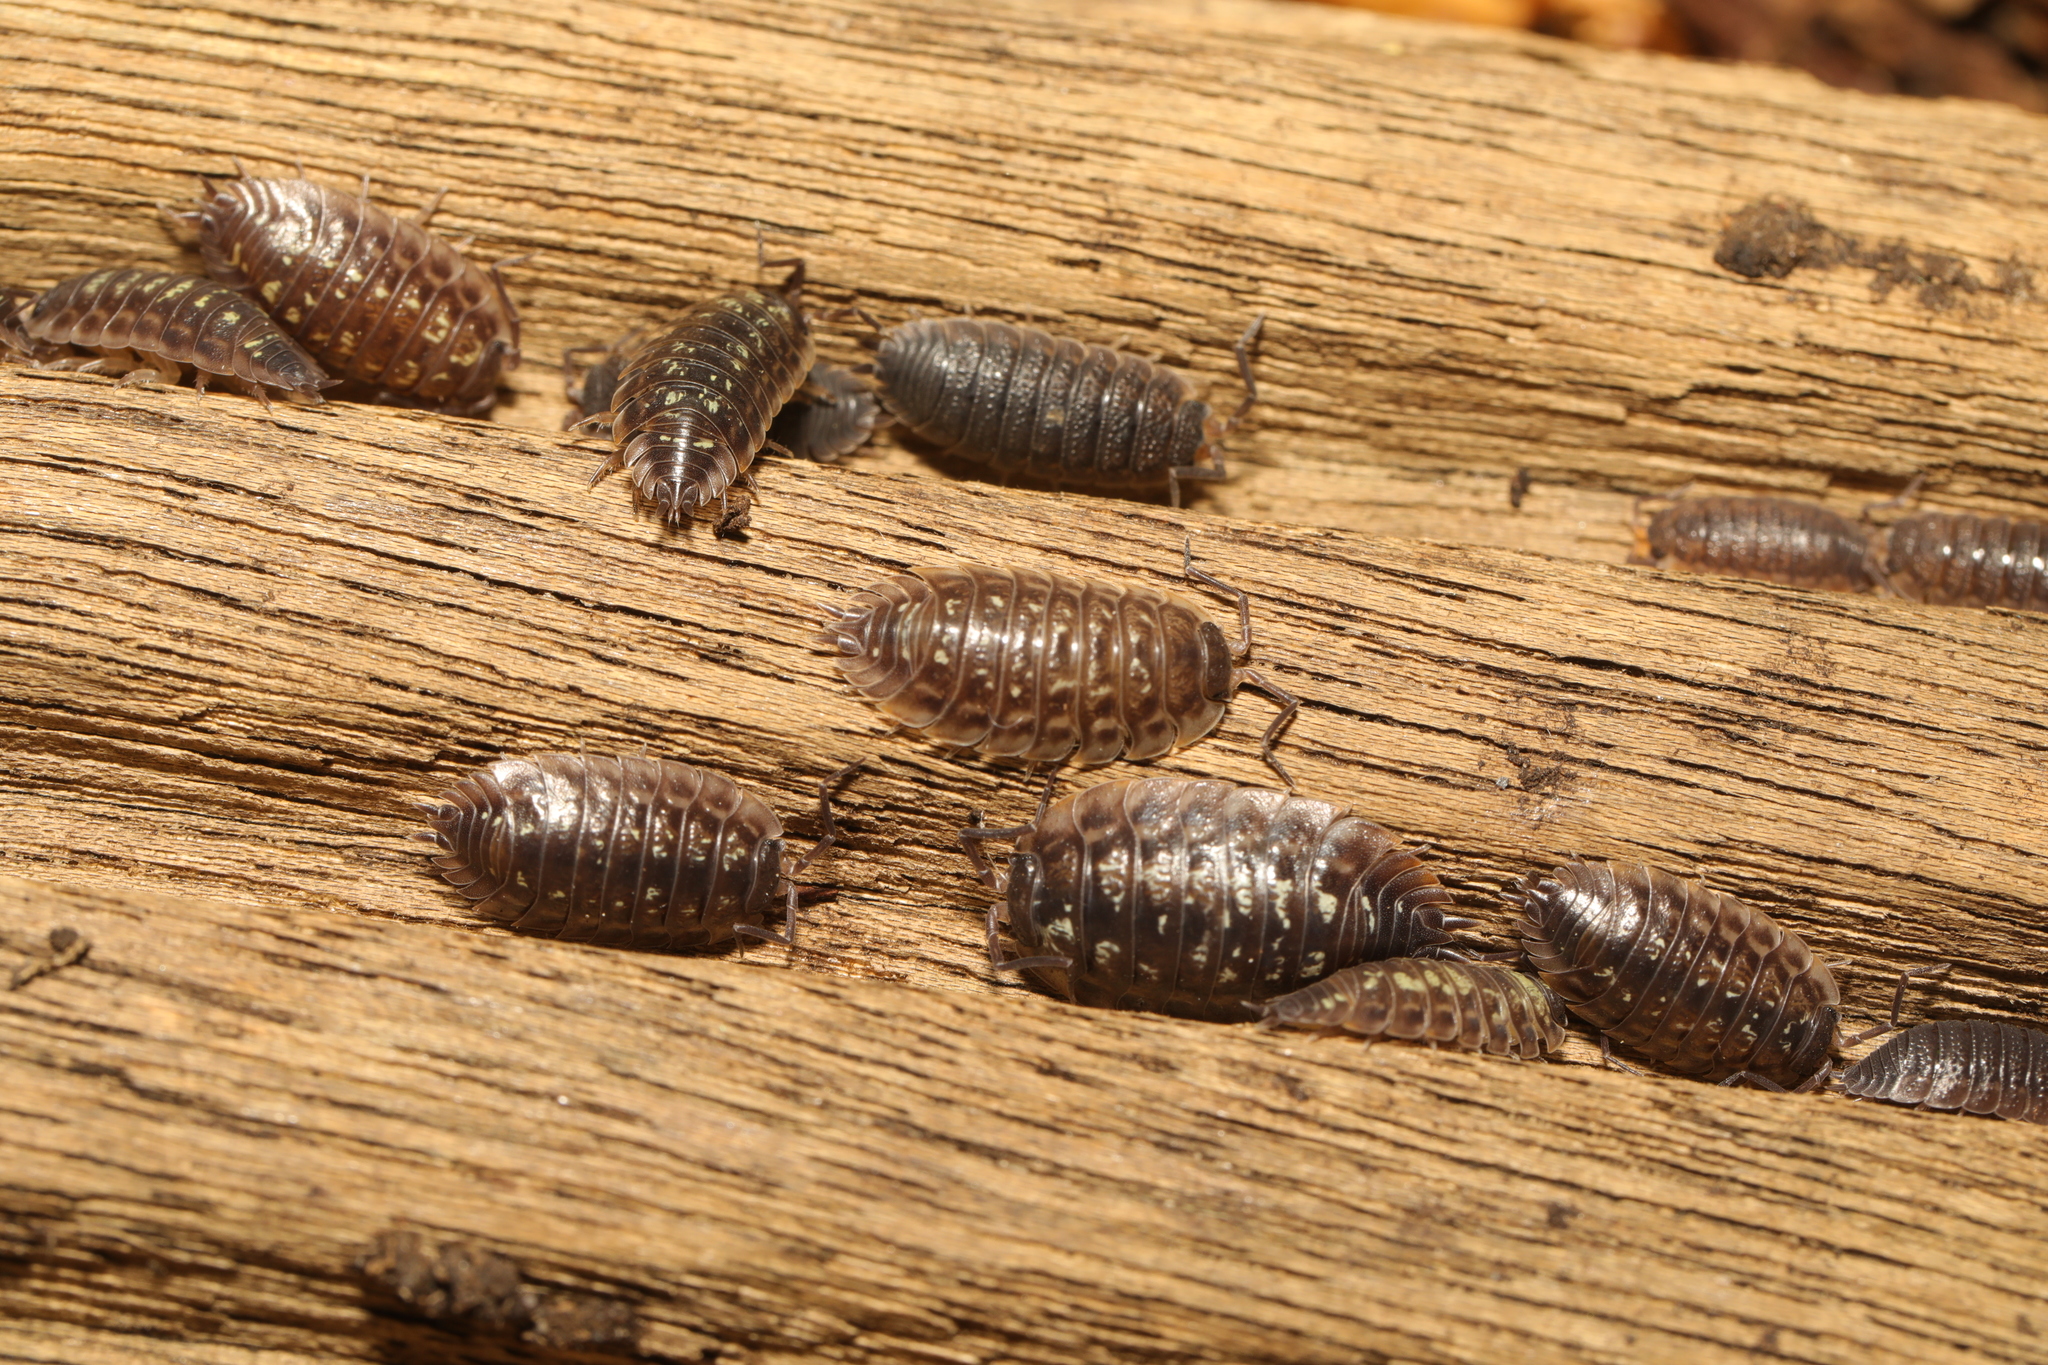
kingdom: Animalia
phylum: Arthropoda
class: Malacostraca
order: Isopoda
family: Oniscidae
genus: Oniscus
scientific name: Oniscus asellus
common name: Common shiny woodlouse
